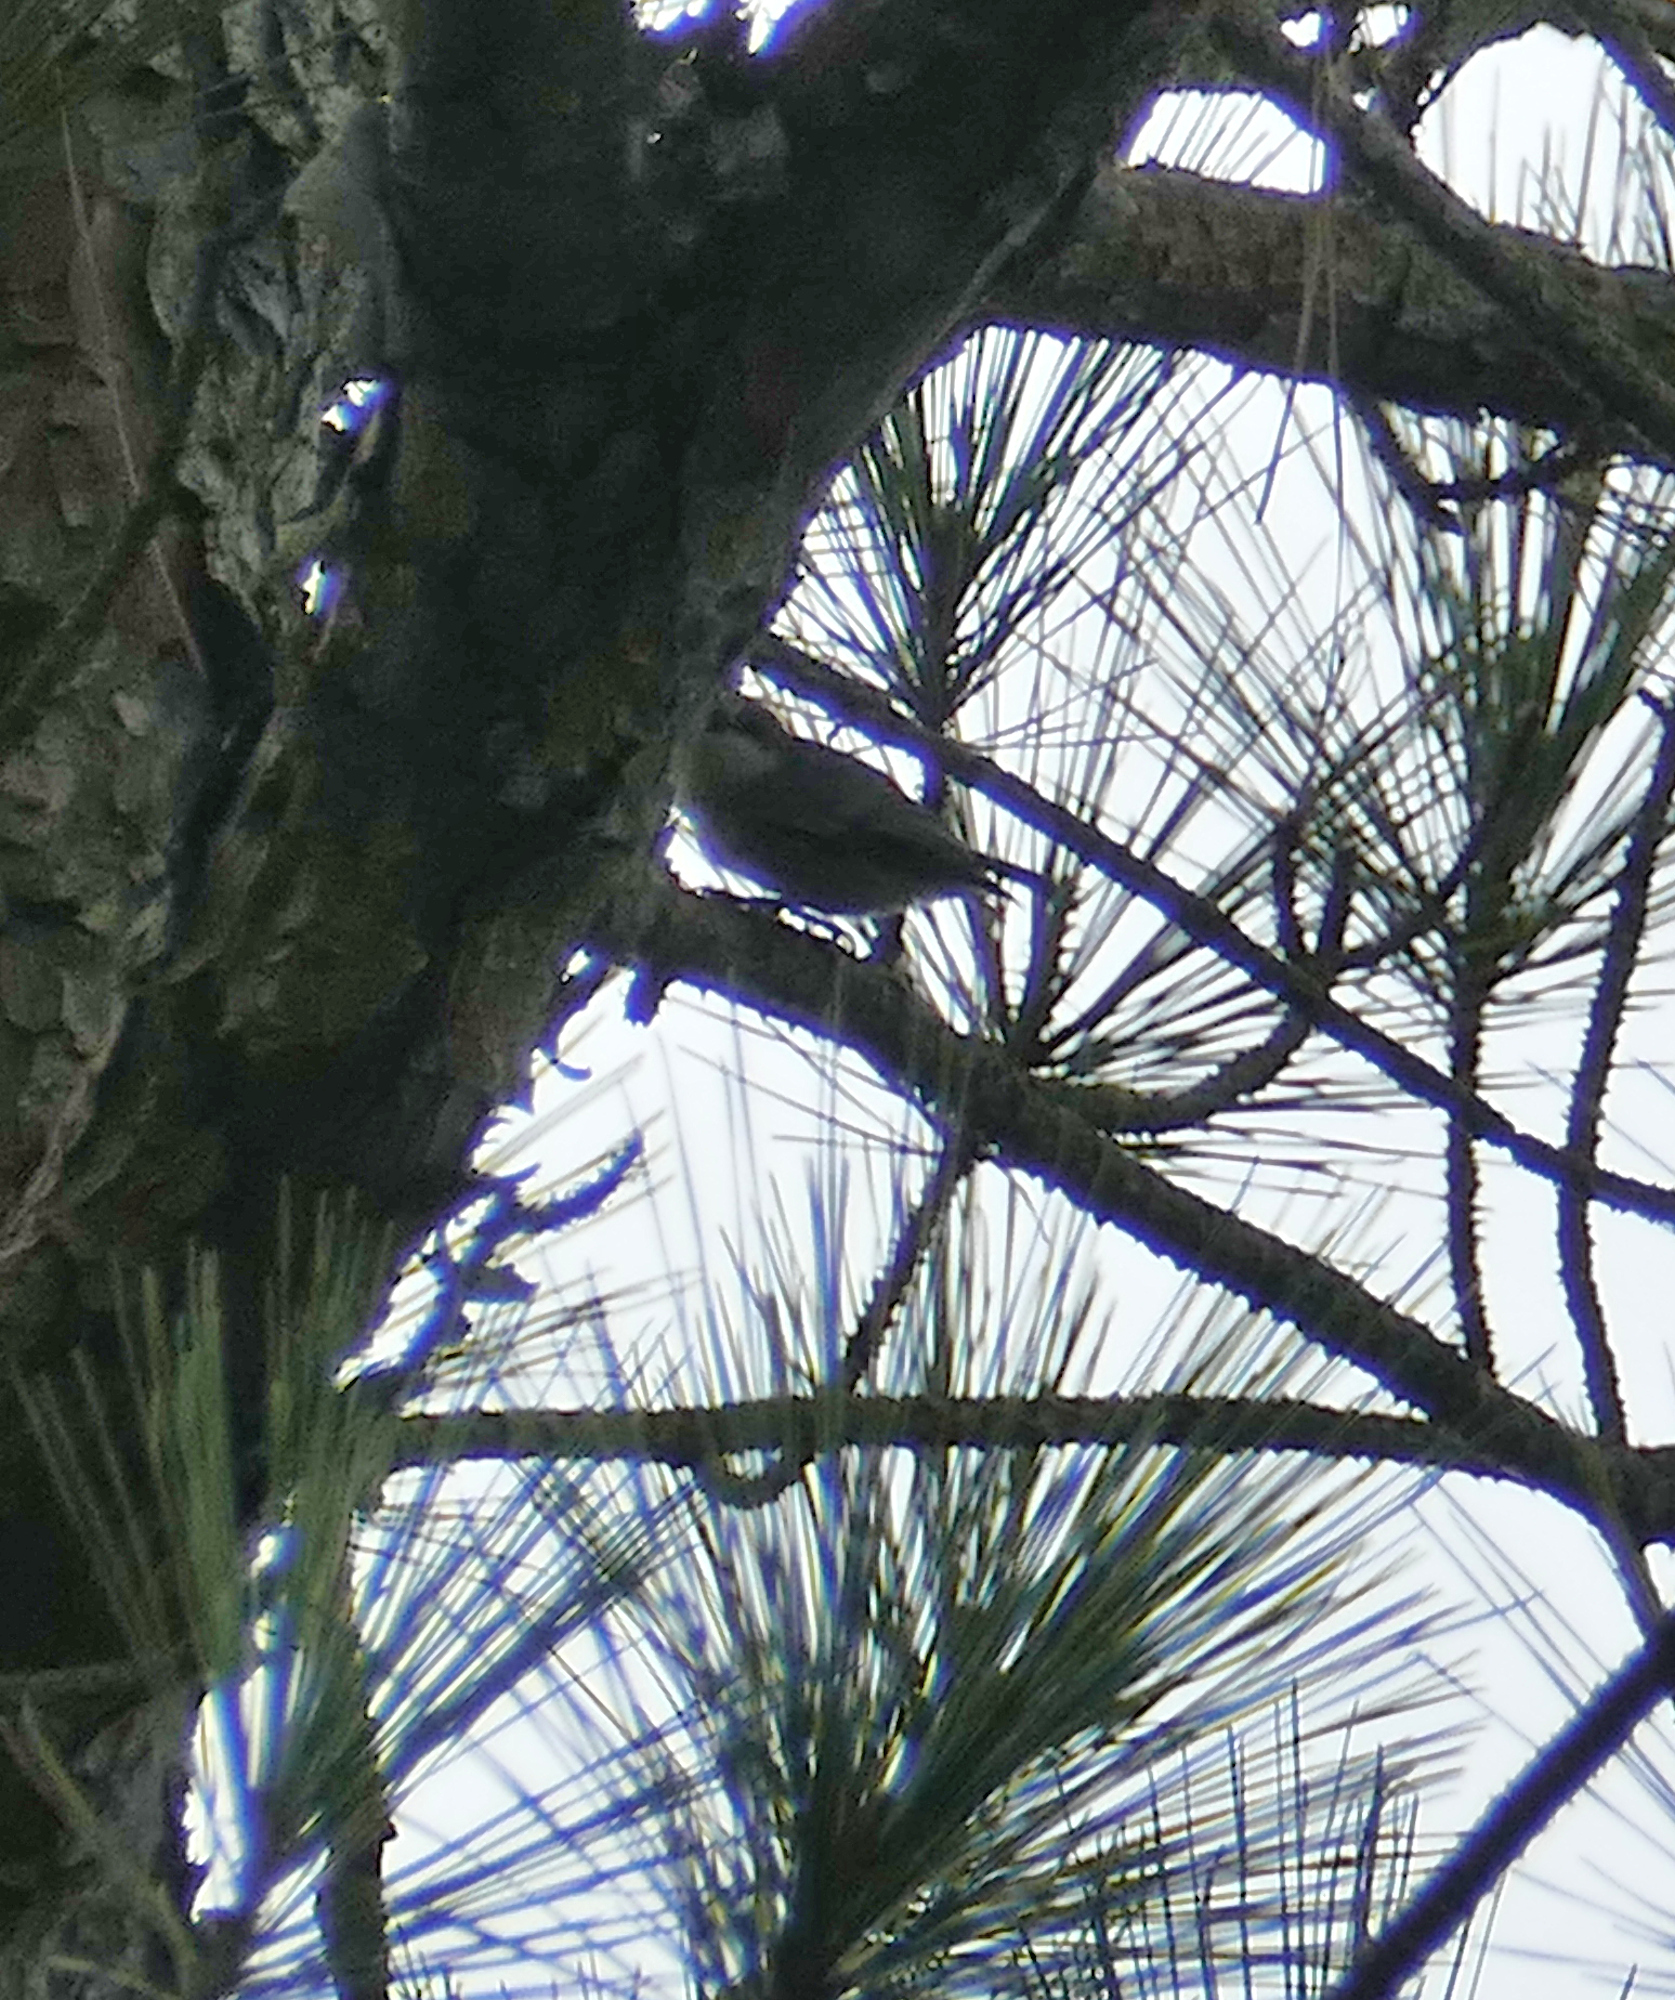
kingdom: Animalia
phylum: Chordata
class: Aves
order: Passeriformes
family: Sittidae
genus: Sitta
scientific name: Sitta pusilla
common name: Brown-headed nuthatch
